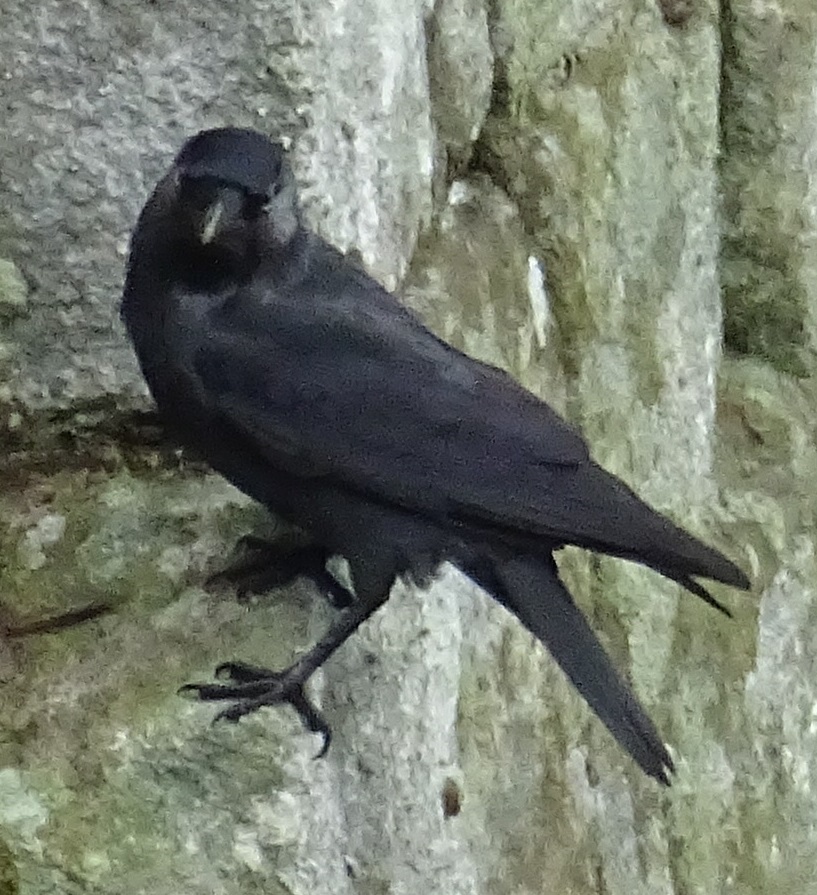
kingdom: Animalia
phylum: Chordata
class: Aves
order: Passeriformes
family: Corvidae
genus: Coloeus
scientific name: Coloeus monedula
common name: Western jackdaw
